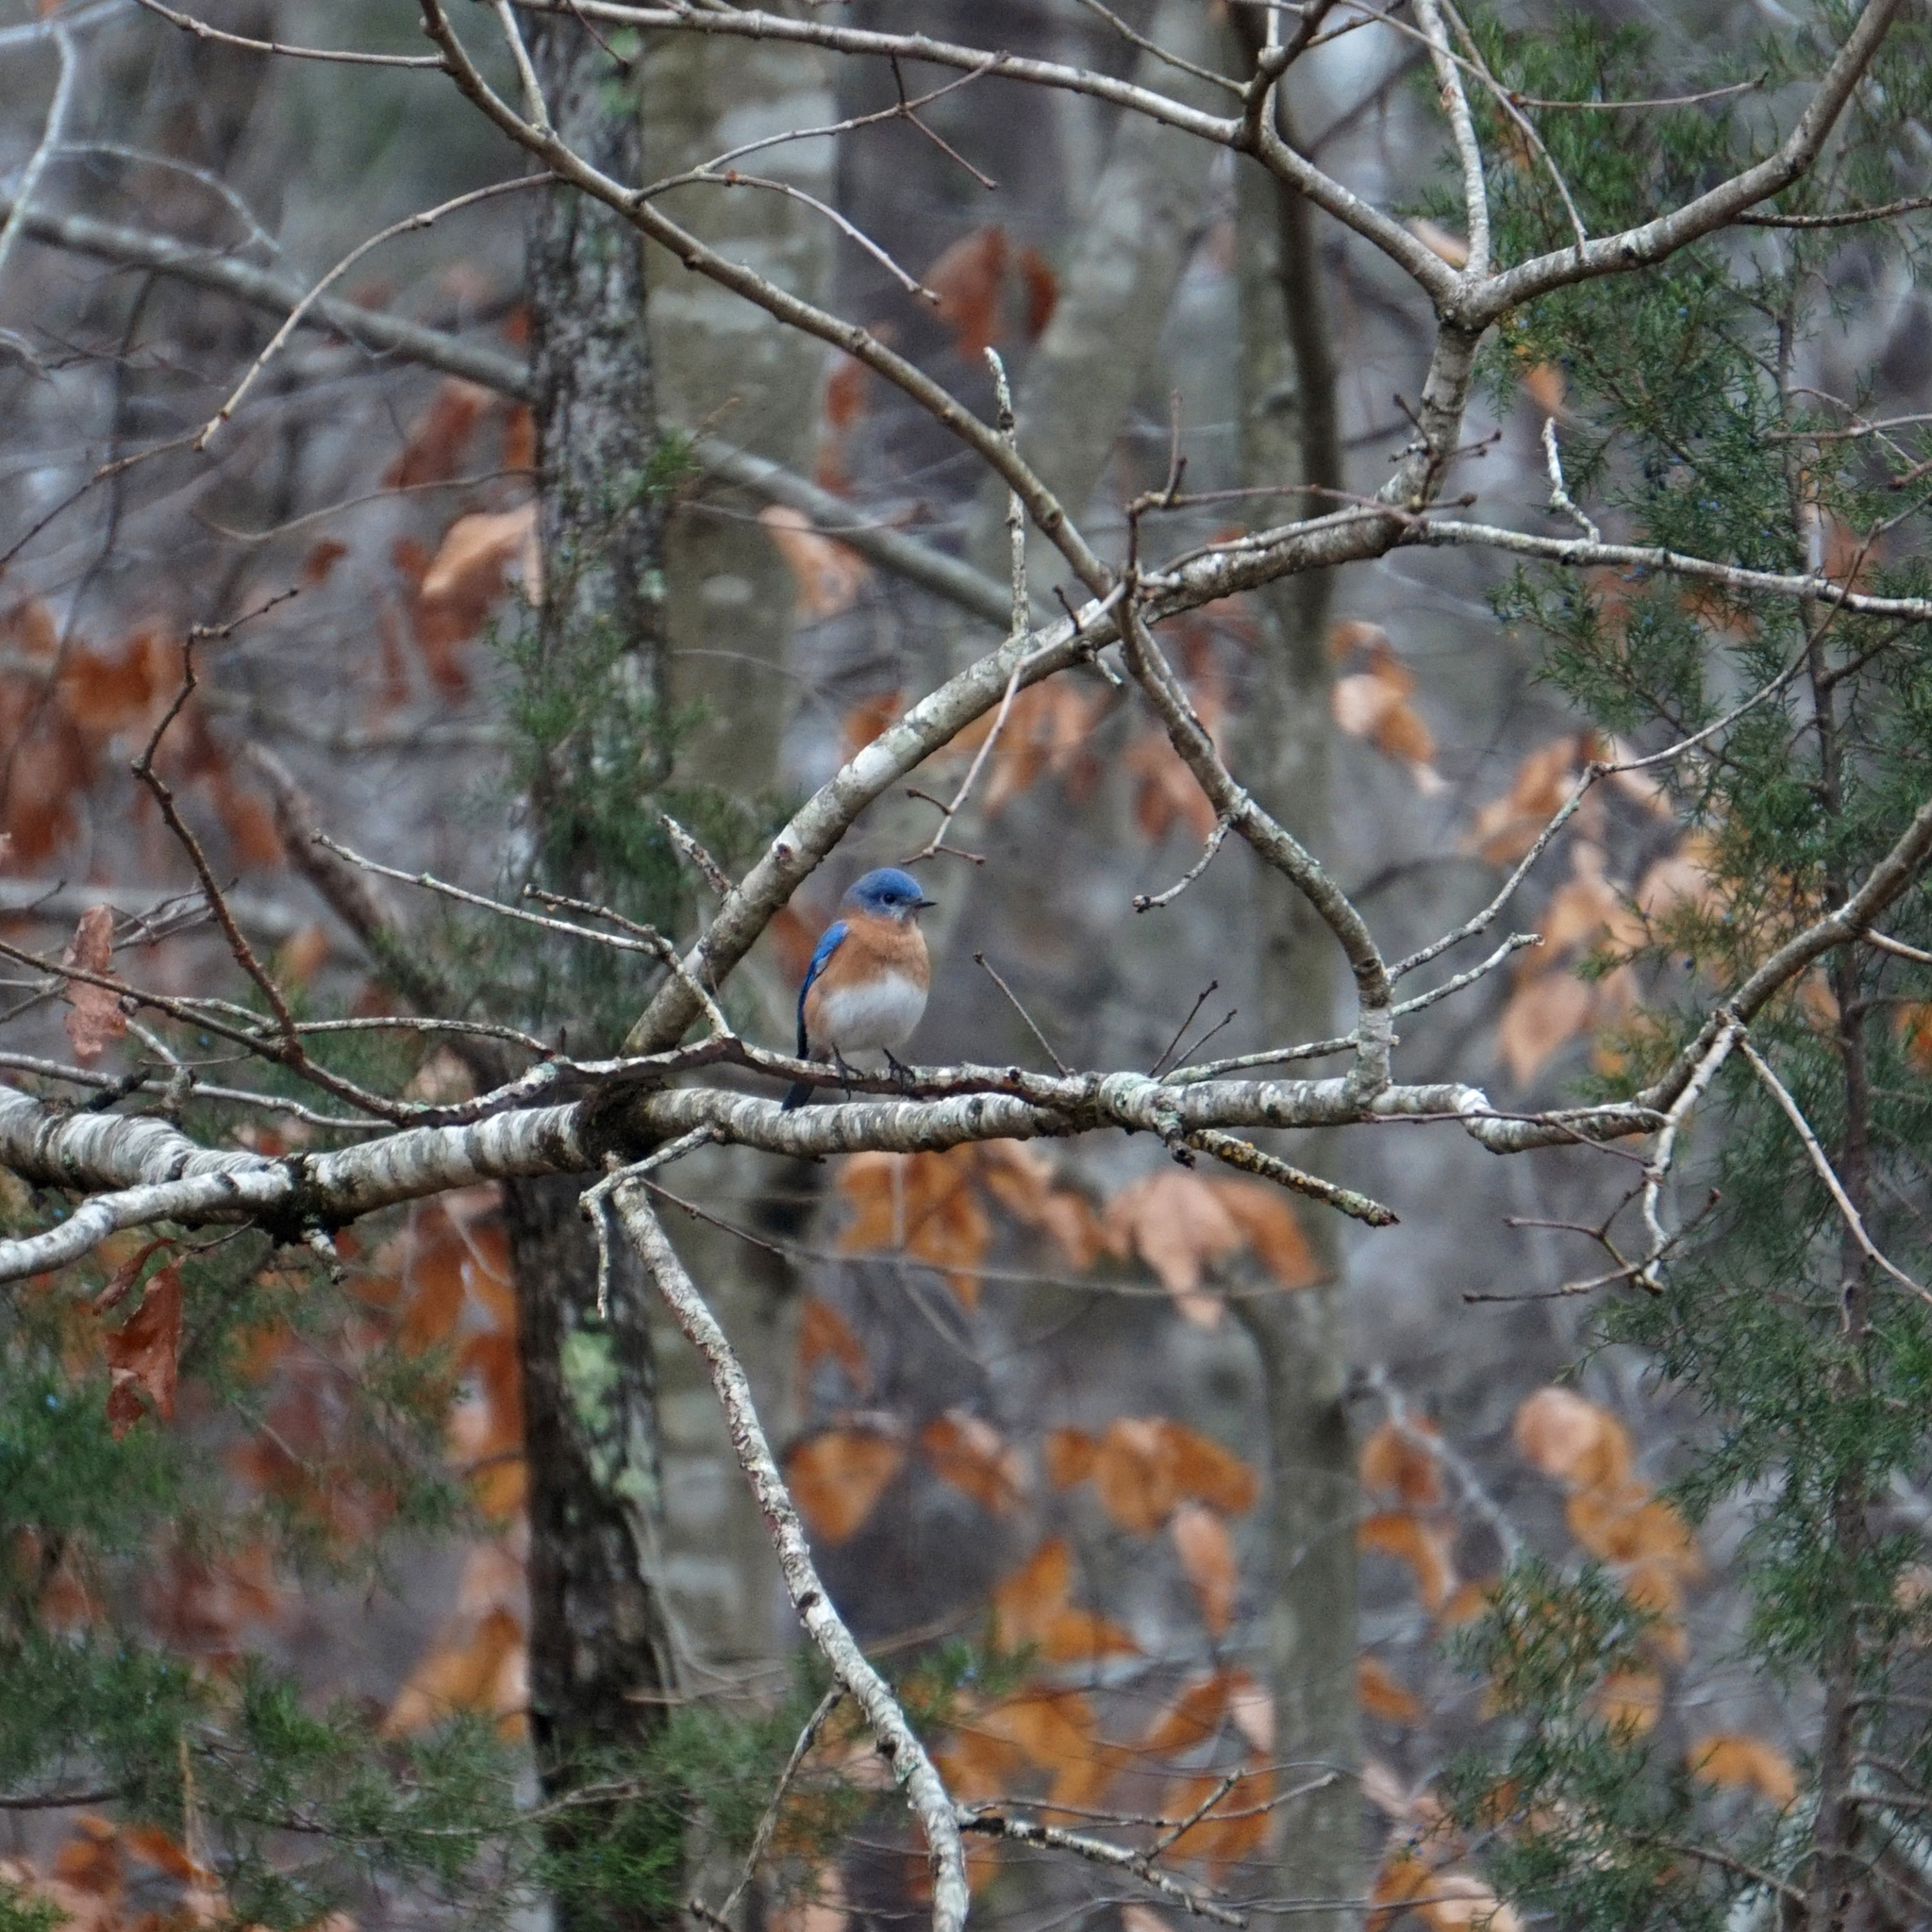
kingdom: Animalia
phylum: Chordata
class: Aves
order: Passeriformes
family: Turdidae
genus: Sialia
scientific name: Sialia sialis
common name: Eastern bluebird
